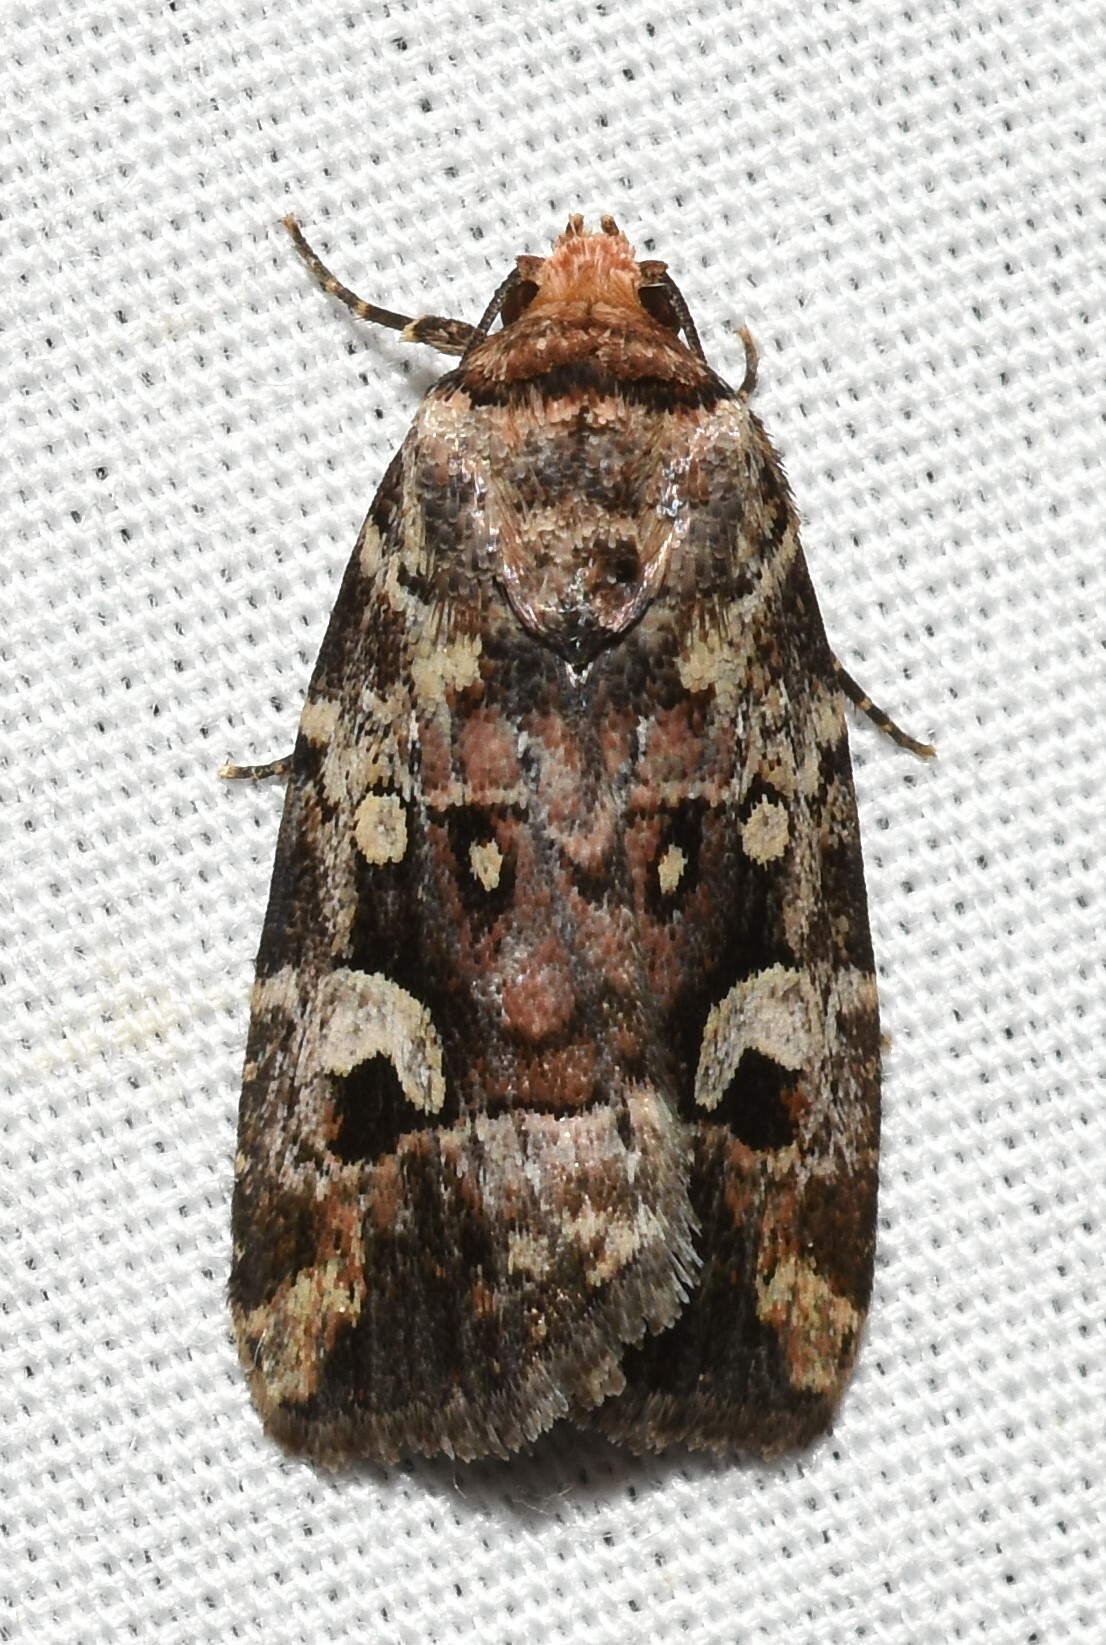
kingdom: Animalia
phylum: Arthropoda
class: Insecta
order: Lepidoptera
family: Noctuidae
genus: Elaphria
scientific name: Elaphria alapallida
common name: Pale-winged midget
